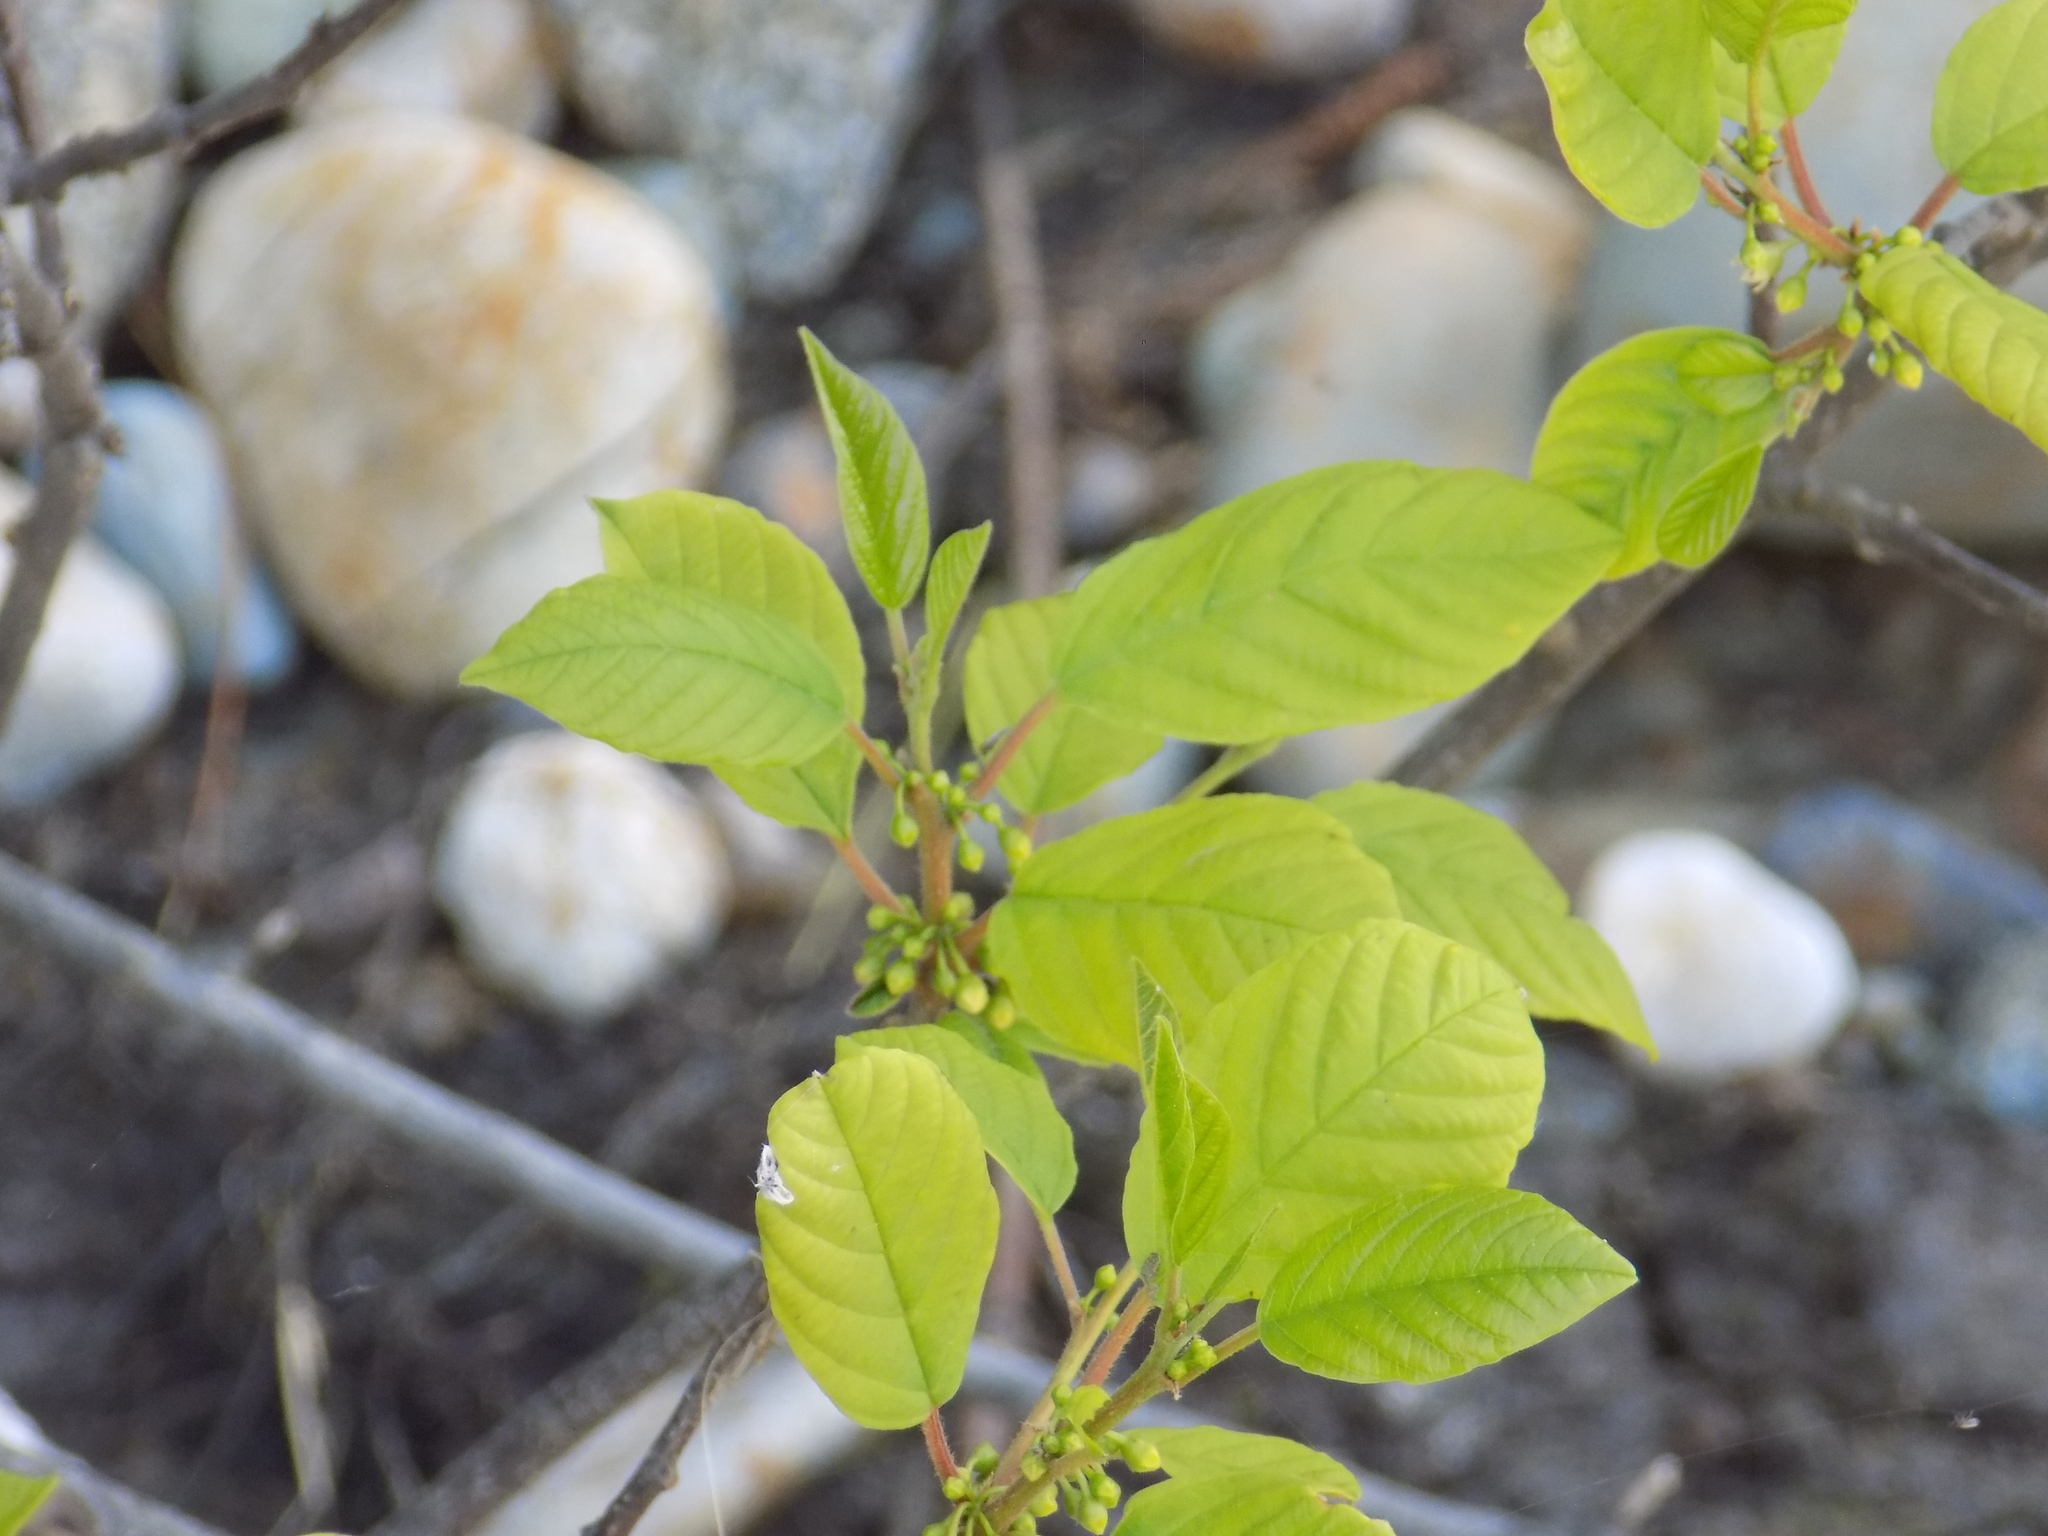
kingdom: Plantae
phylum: Tracheophyta
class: Magnoliopsida
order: Rosales
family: Rhamnaceae
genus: Frangula
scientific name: Frangula alnus
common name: Alder buckthorn
